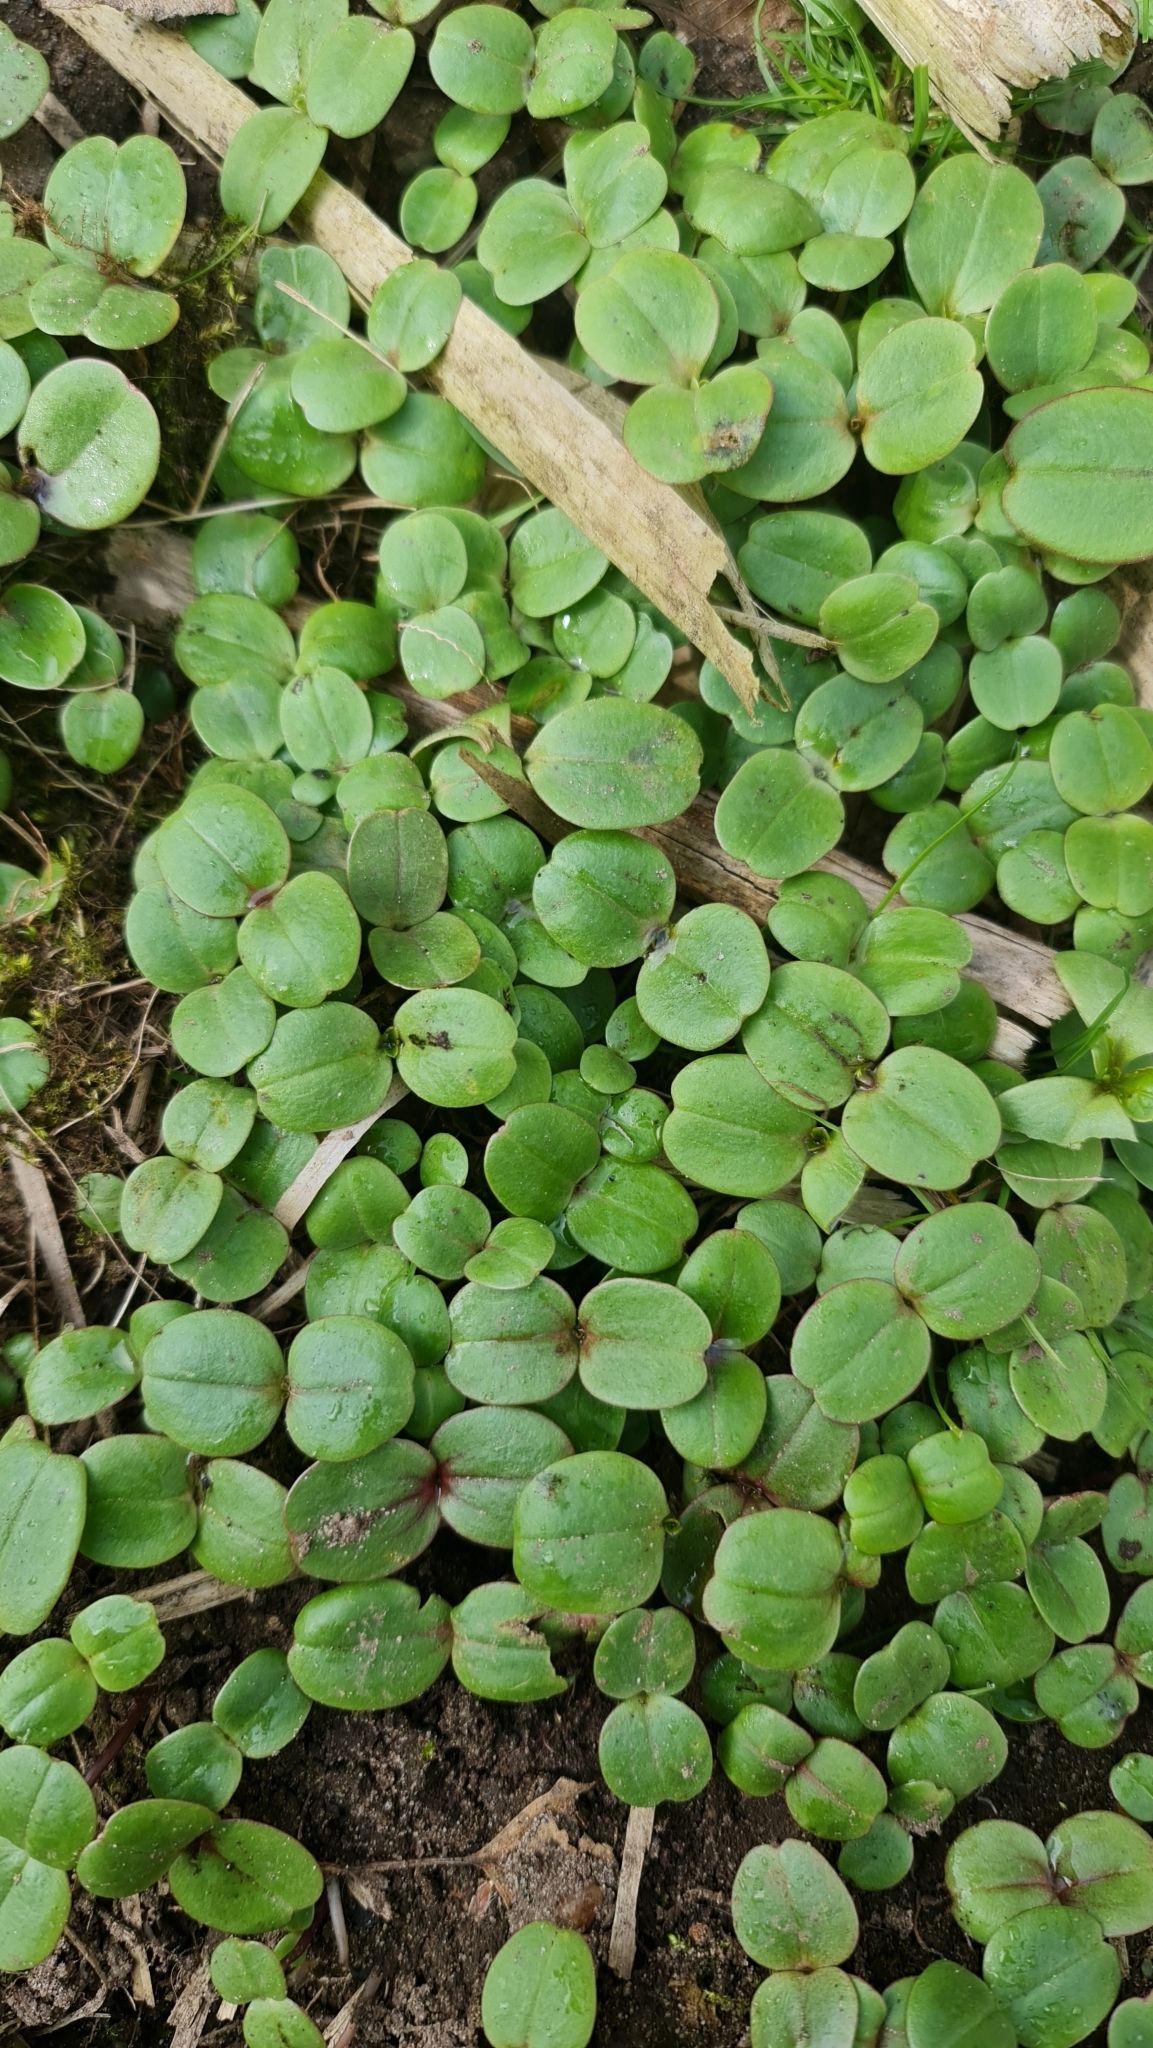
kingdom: Plantae
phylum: Tracheophyta
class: Magnoliopsida
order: Ericales
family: Balsaminaceae
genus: Impatiens
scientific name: Impatiens glandulifera
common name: Himalayan balsam
